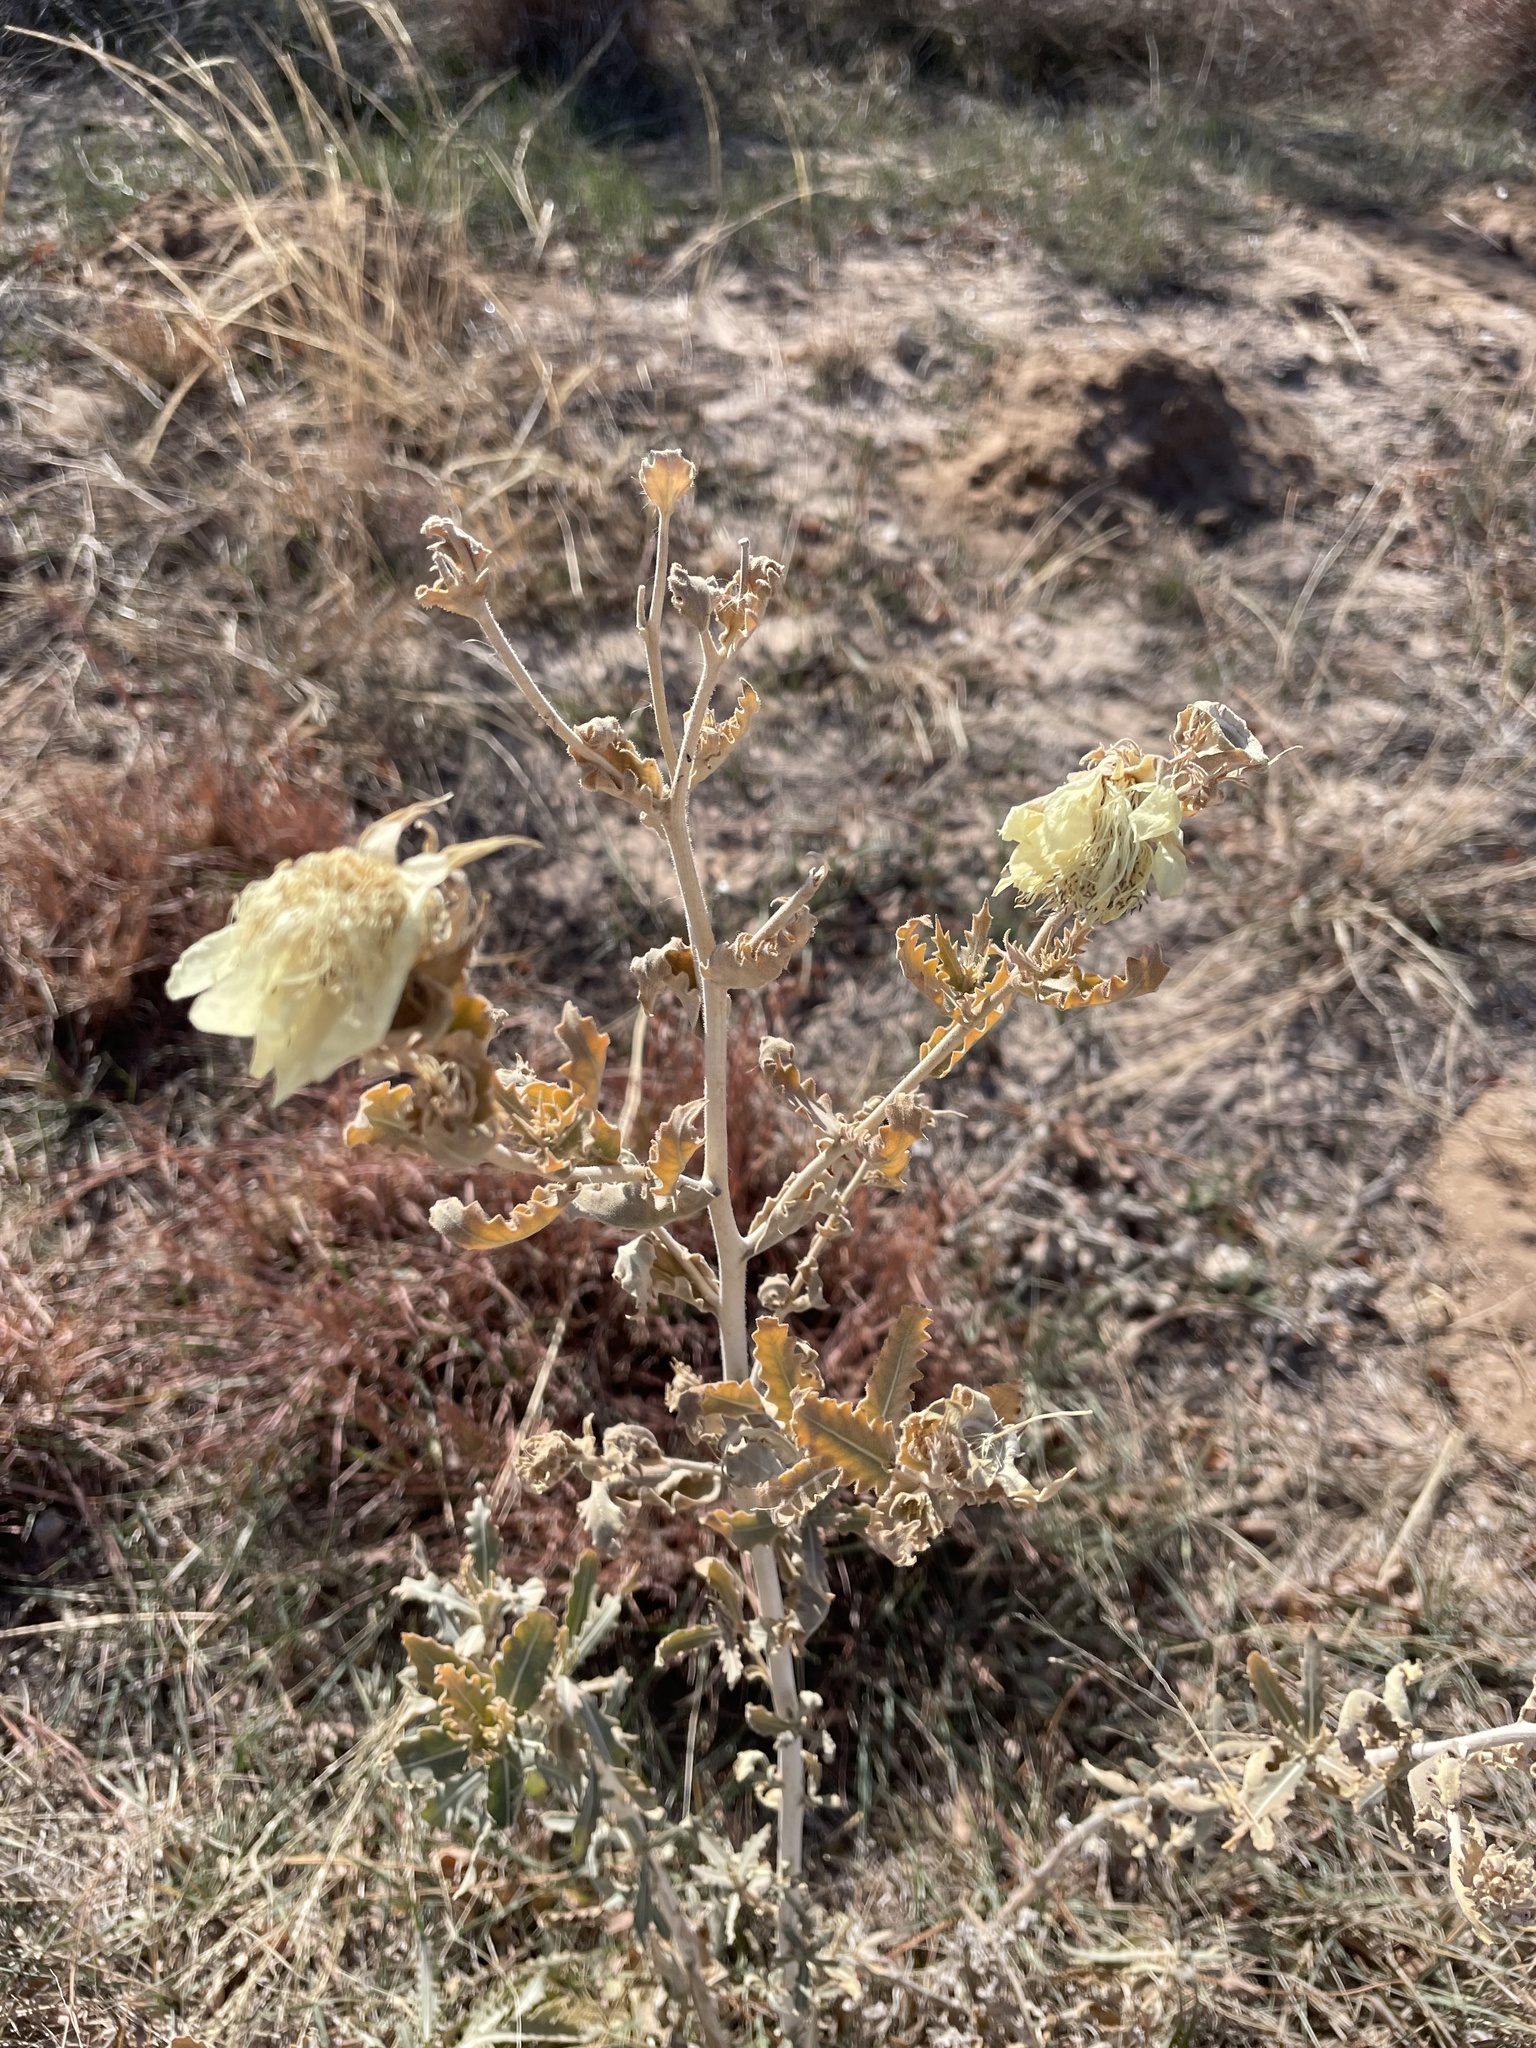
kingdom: Plantae
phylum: Tracheophyta
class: Magnoliopsida
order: Cornales
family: Loasaceae
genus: Mentzelia
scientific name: Mentzelia nuda
